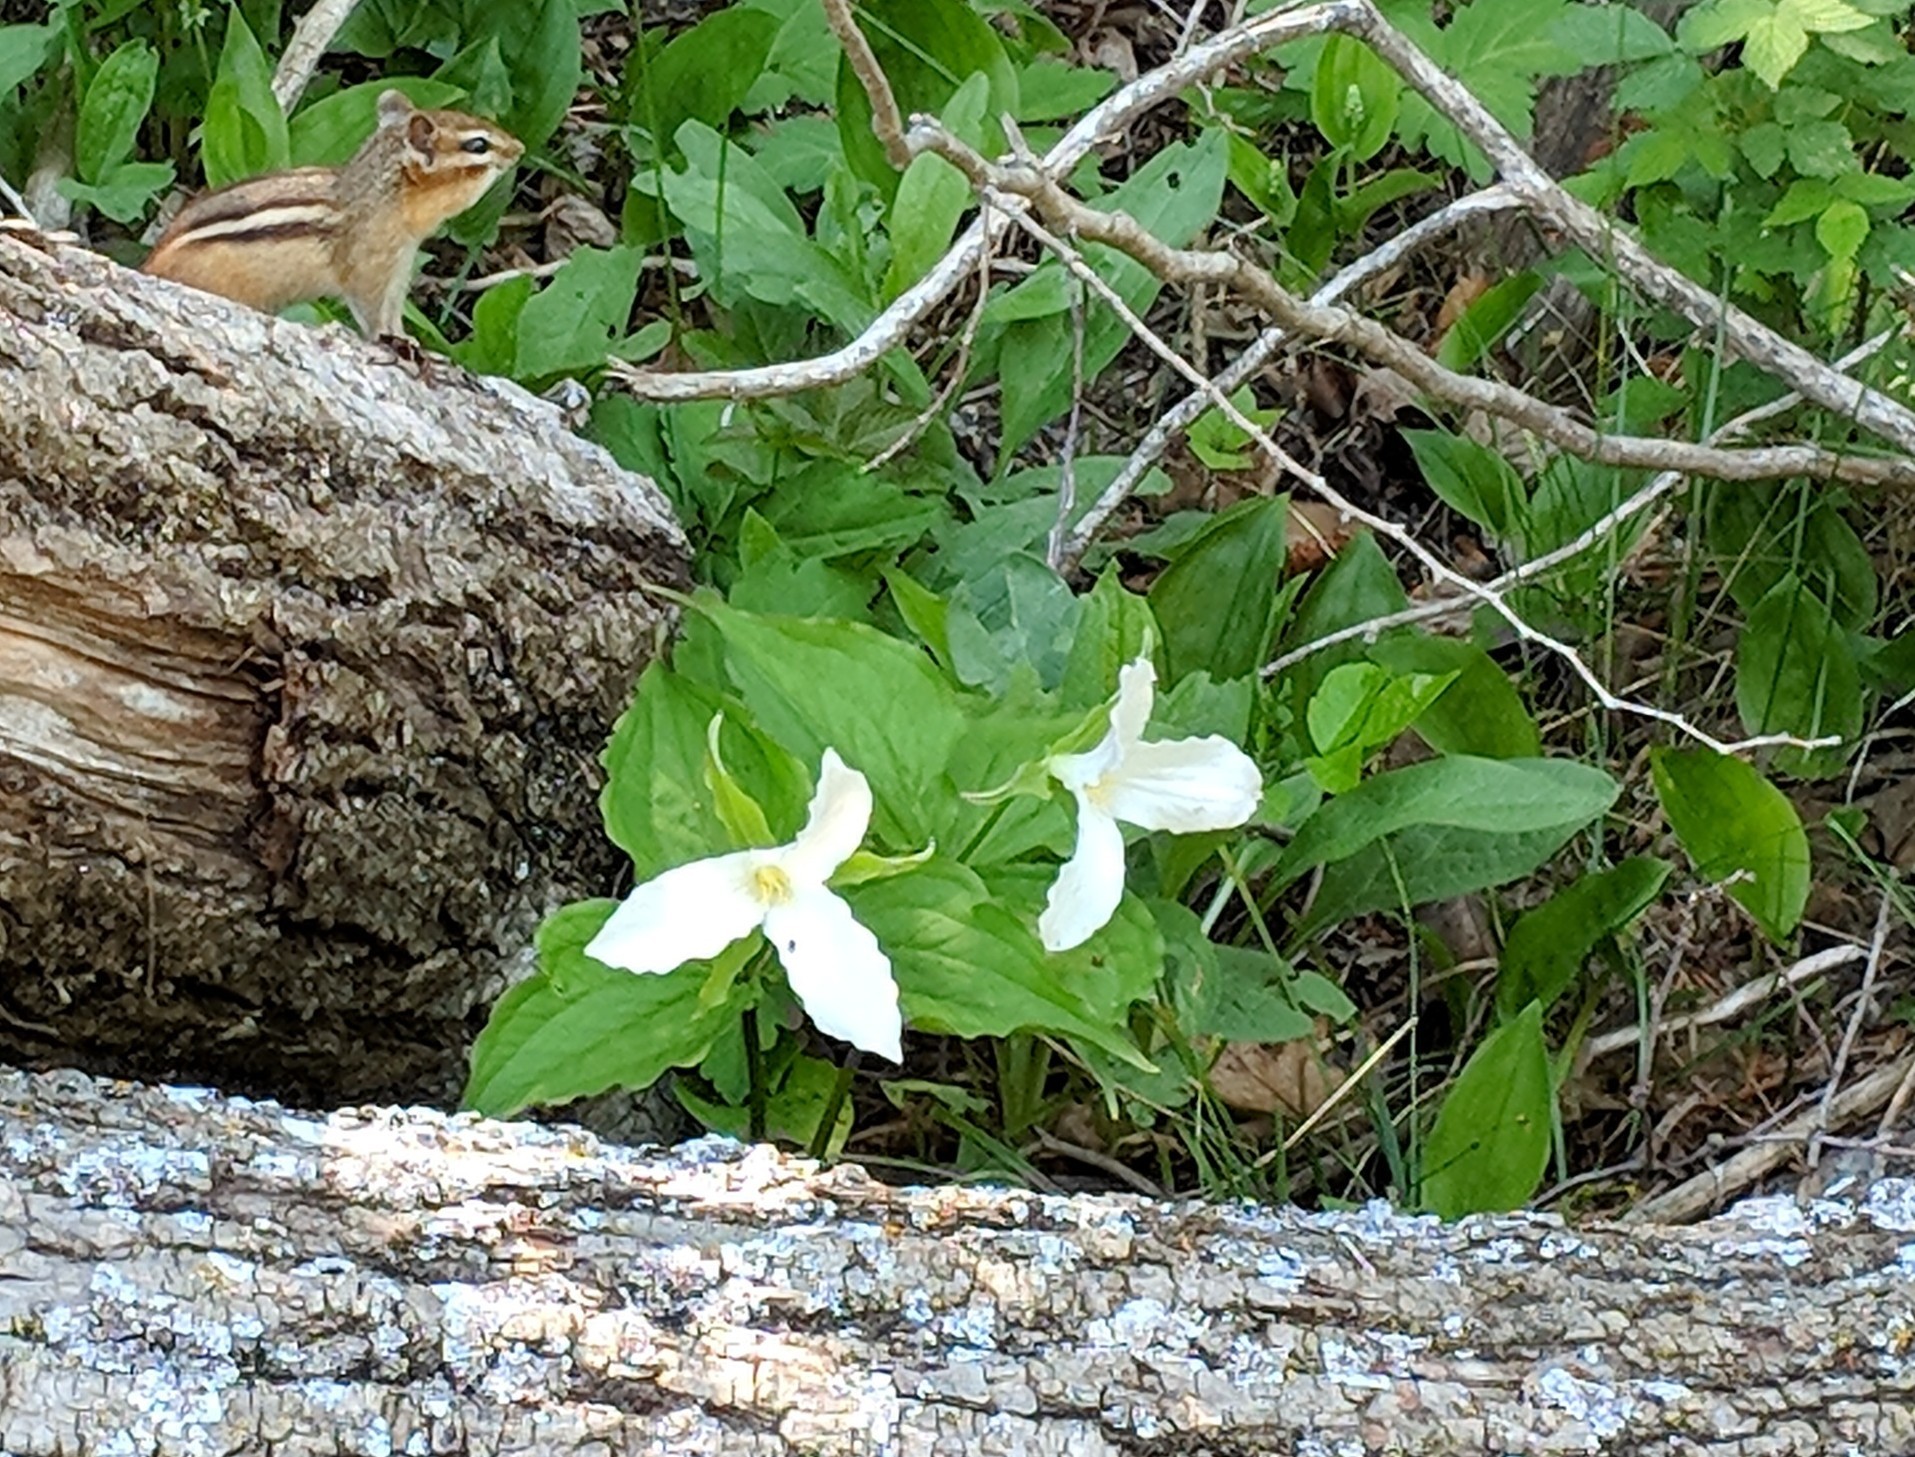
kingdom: Plantae
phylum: Tracheophyta
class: Liliopsida
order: Liliales
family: Melanthiaceae
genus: Trillium
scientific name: Trillium grandiflorum
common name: Great white trillium
